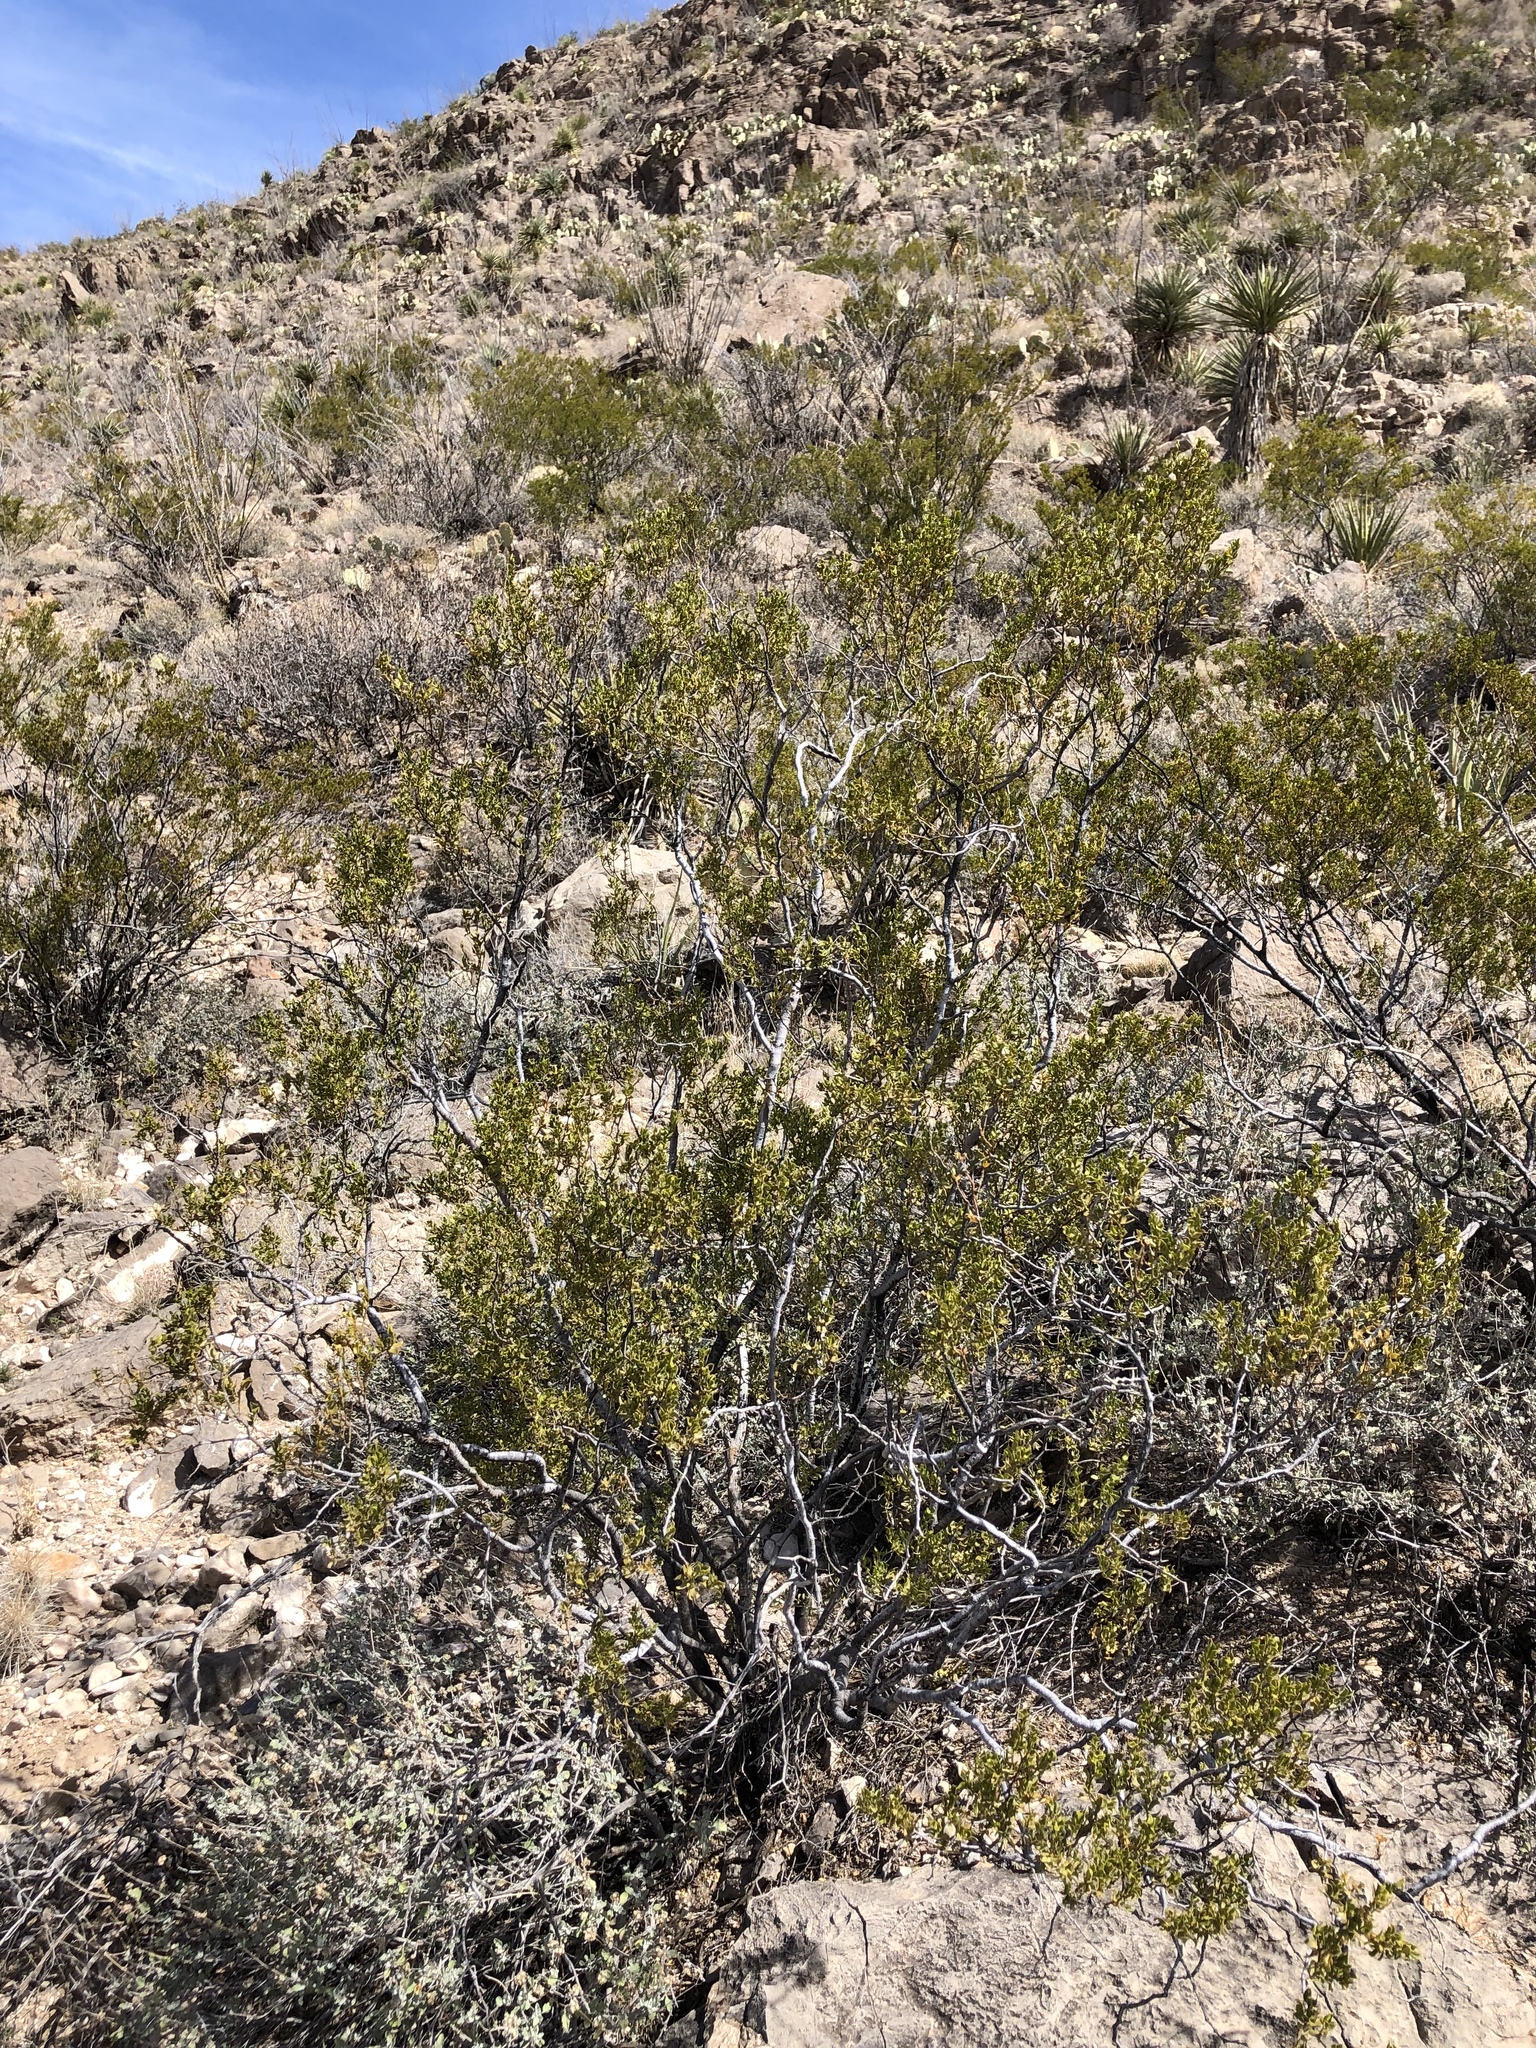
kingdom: Plantae
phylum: Tracheophyta
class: Magnoliopsida
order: Zygophyllales
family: Zygophyllaceae
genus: Larrea
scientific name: Larrea tridentata
